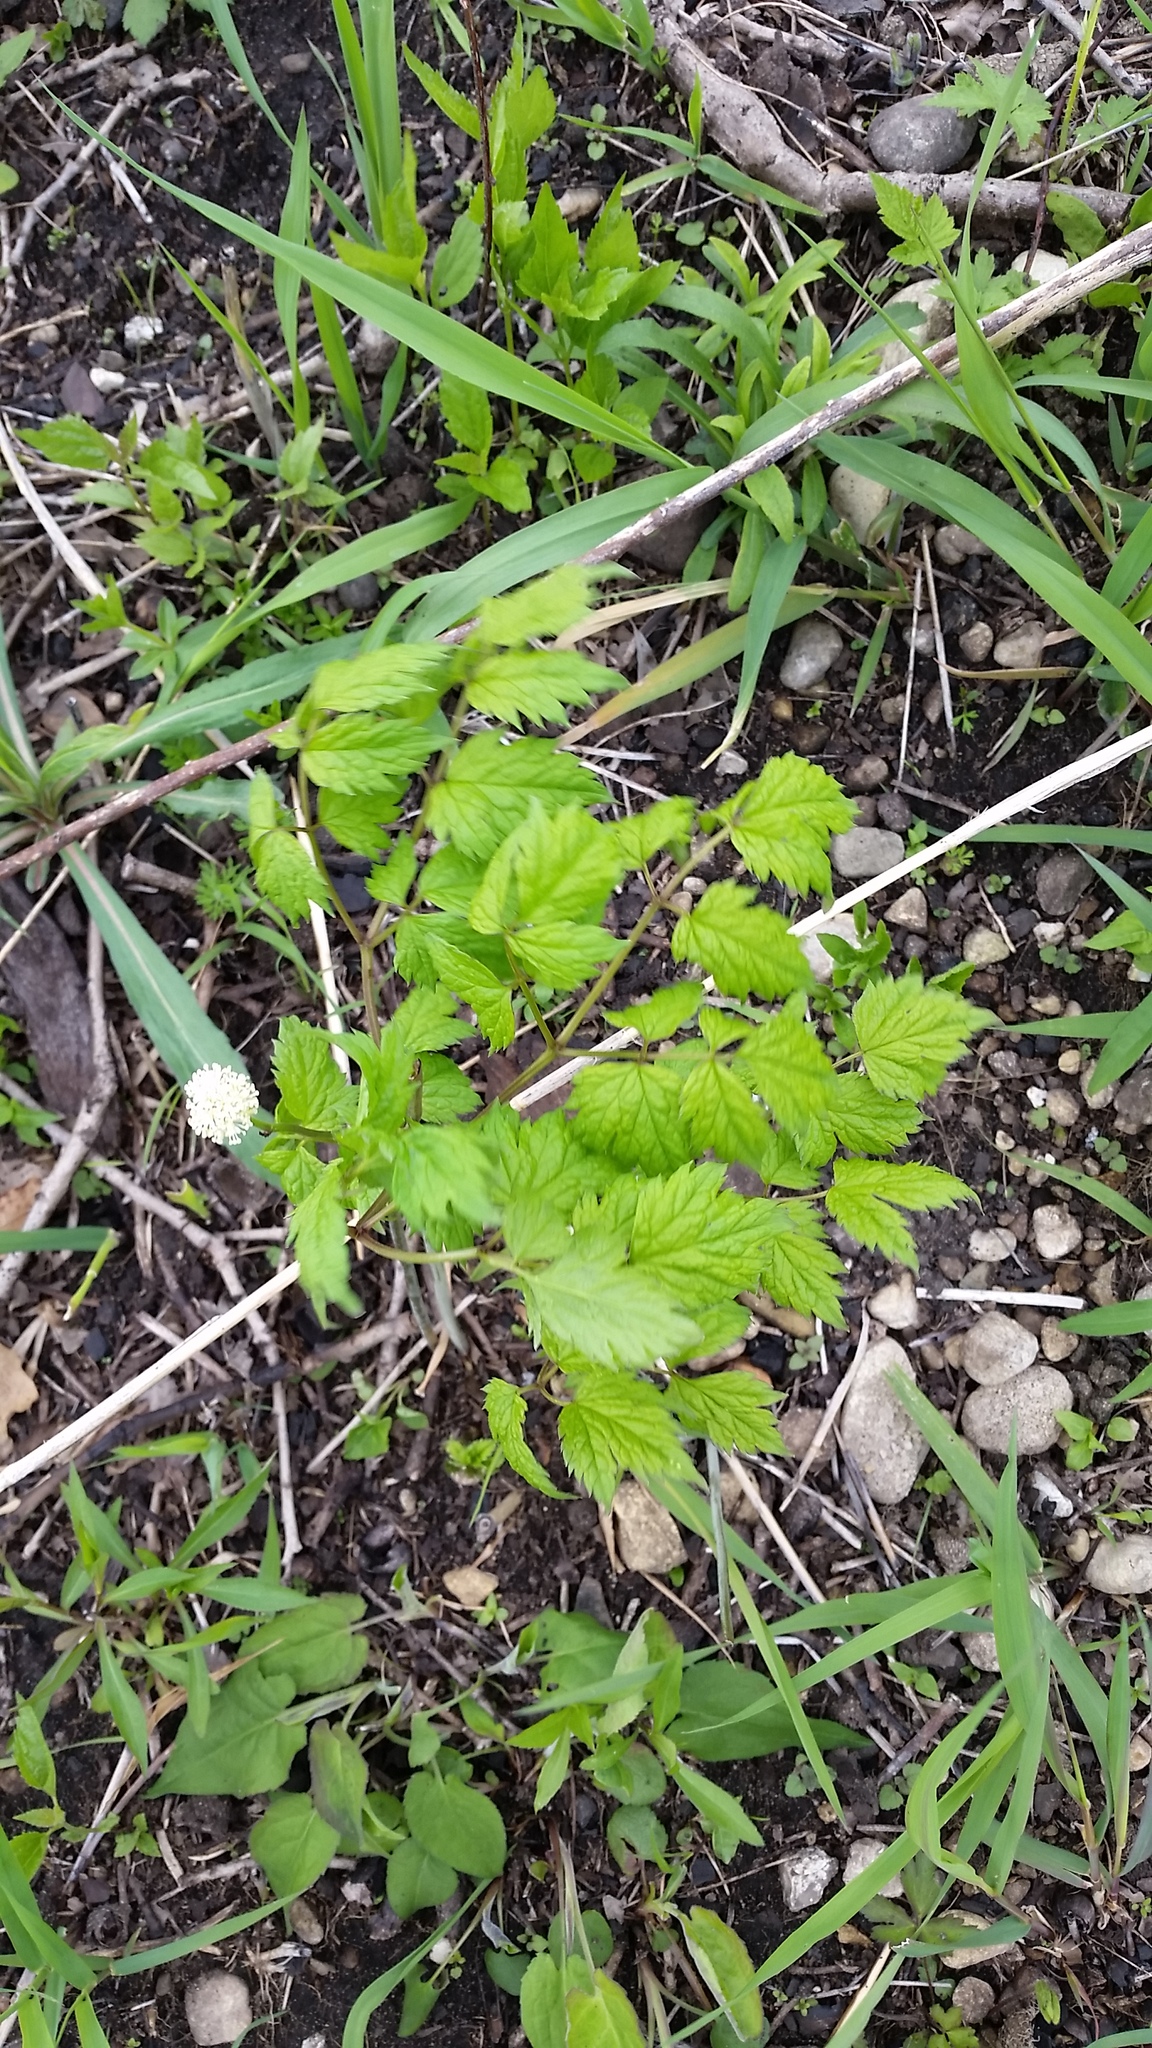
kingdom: Plantae
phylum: Tracheophyta
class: Magnoliopsida
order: Ranunculales
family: Ranunculaceae
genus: Actaea
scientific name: Actaea pachypoda
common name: Doll's-eyes
